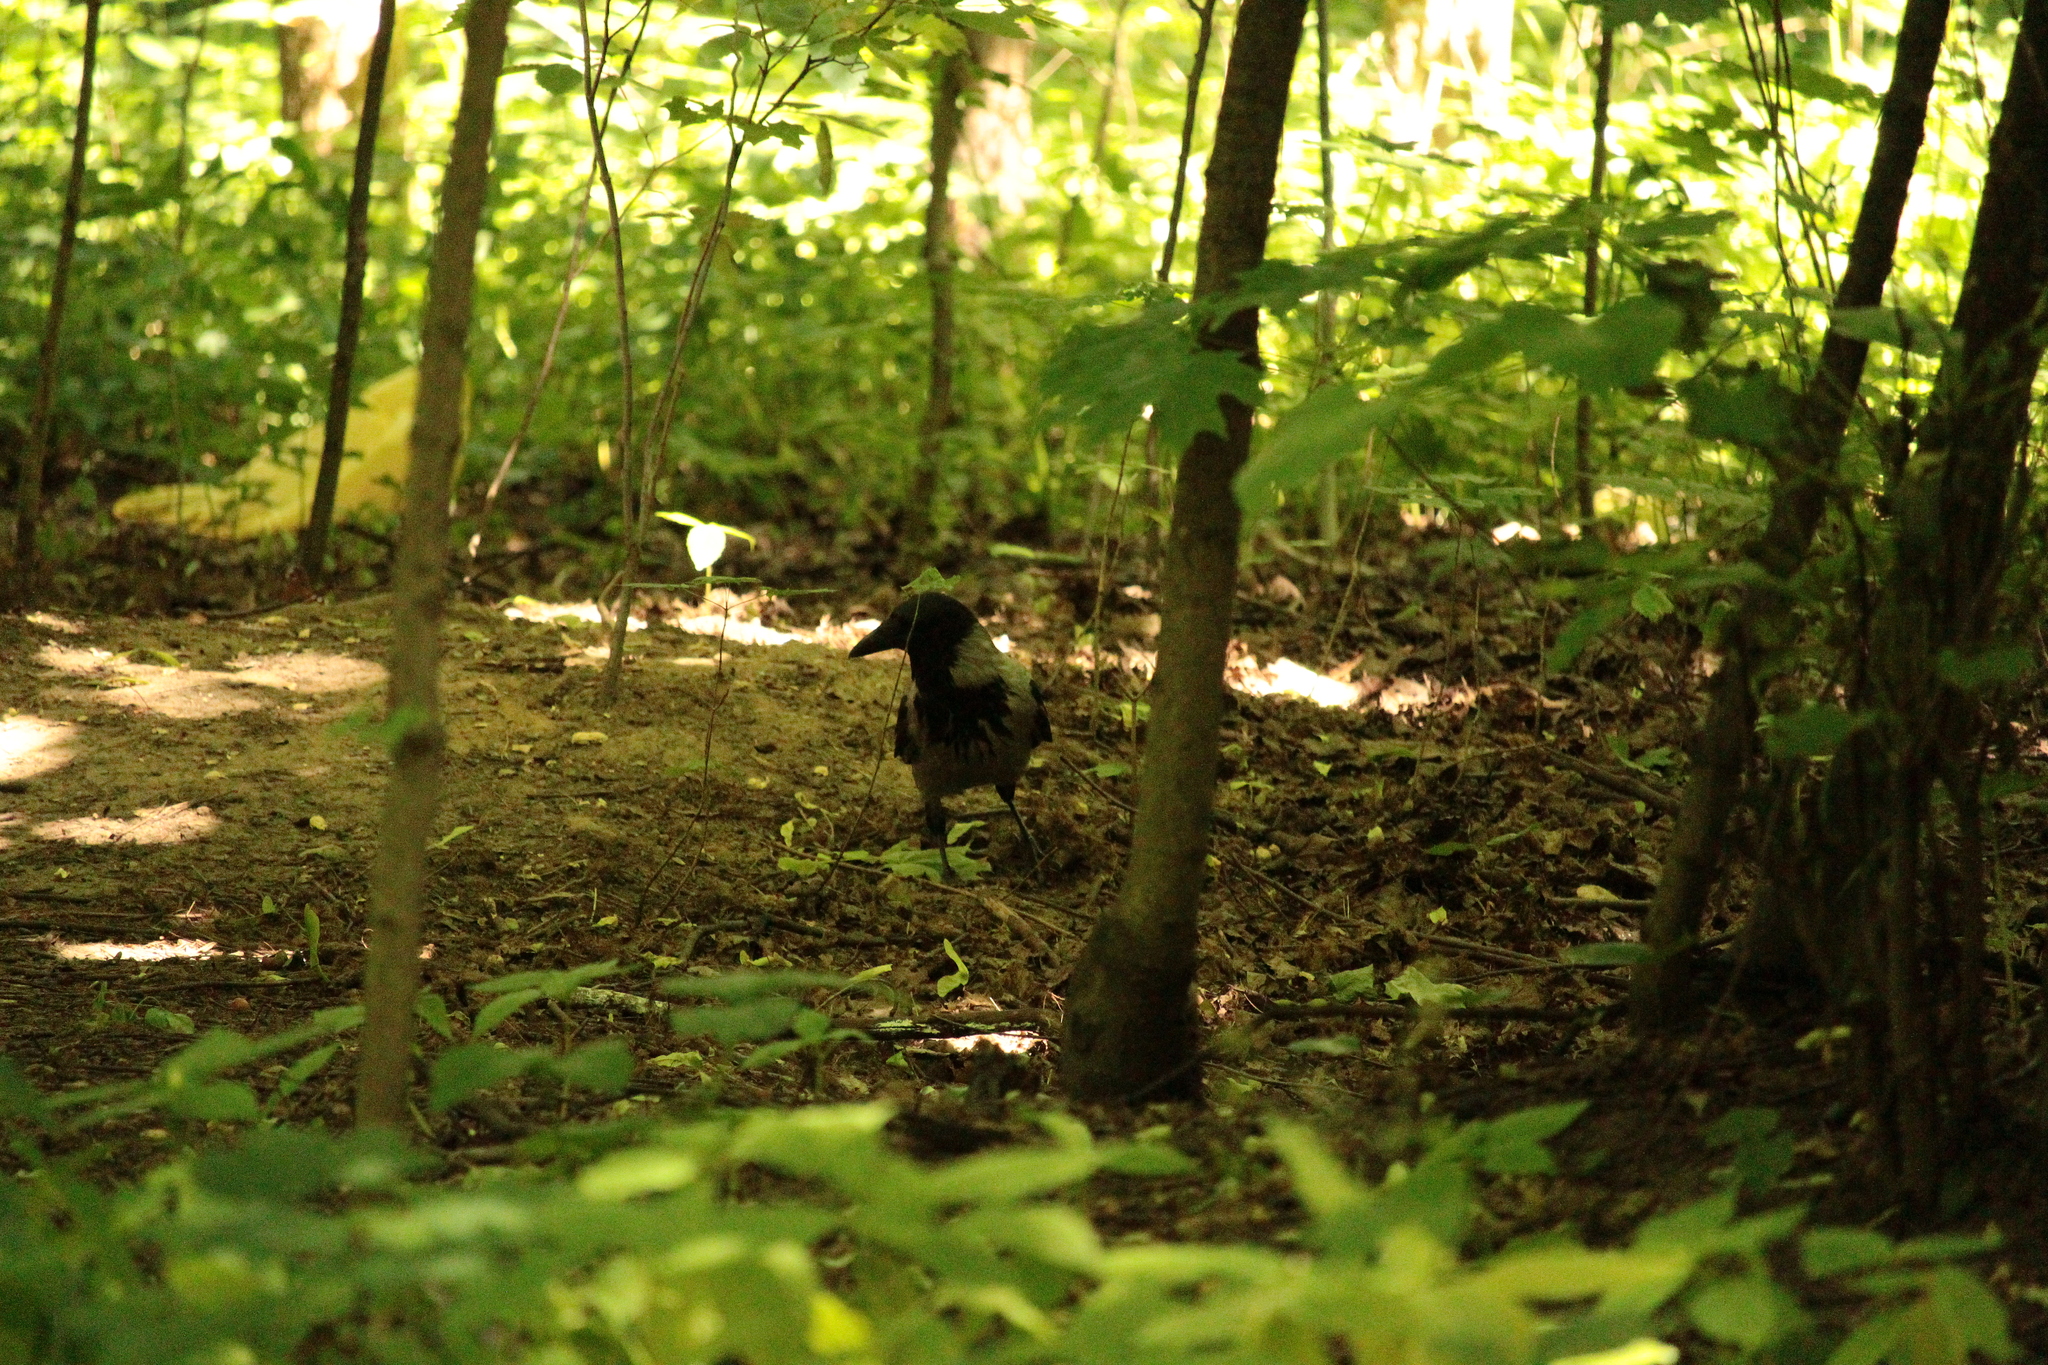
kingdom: Animalia
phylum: Chordata
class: Aves
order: Passeriformes
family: Corvidae
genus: Corvus
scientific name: Corvus cornix
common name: Hooded crow
